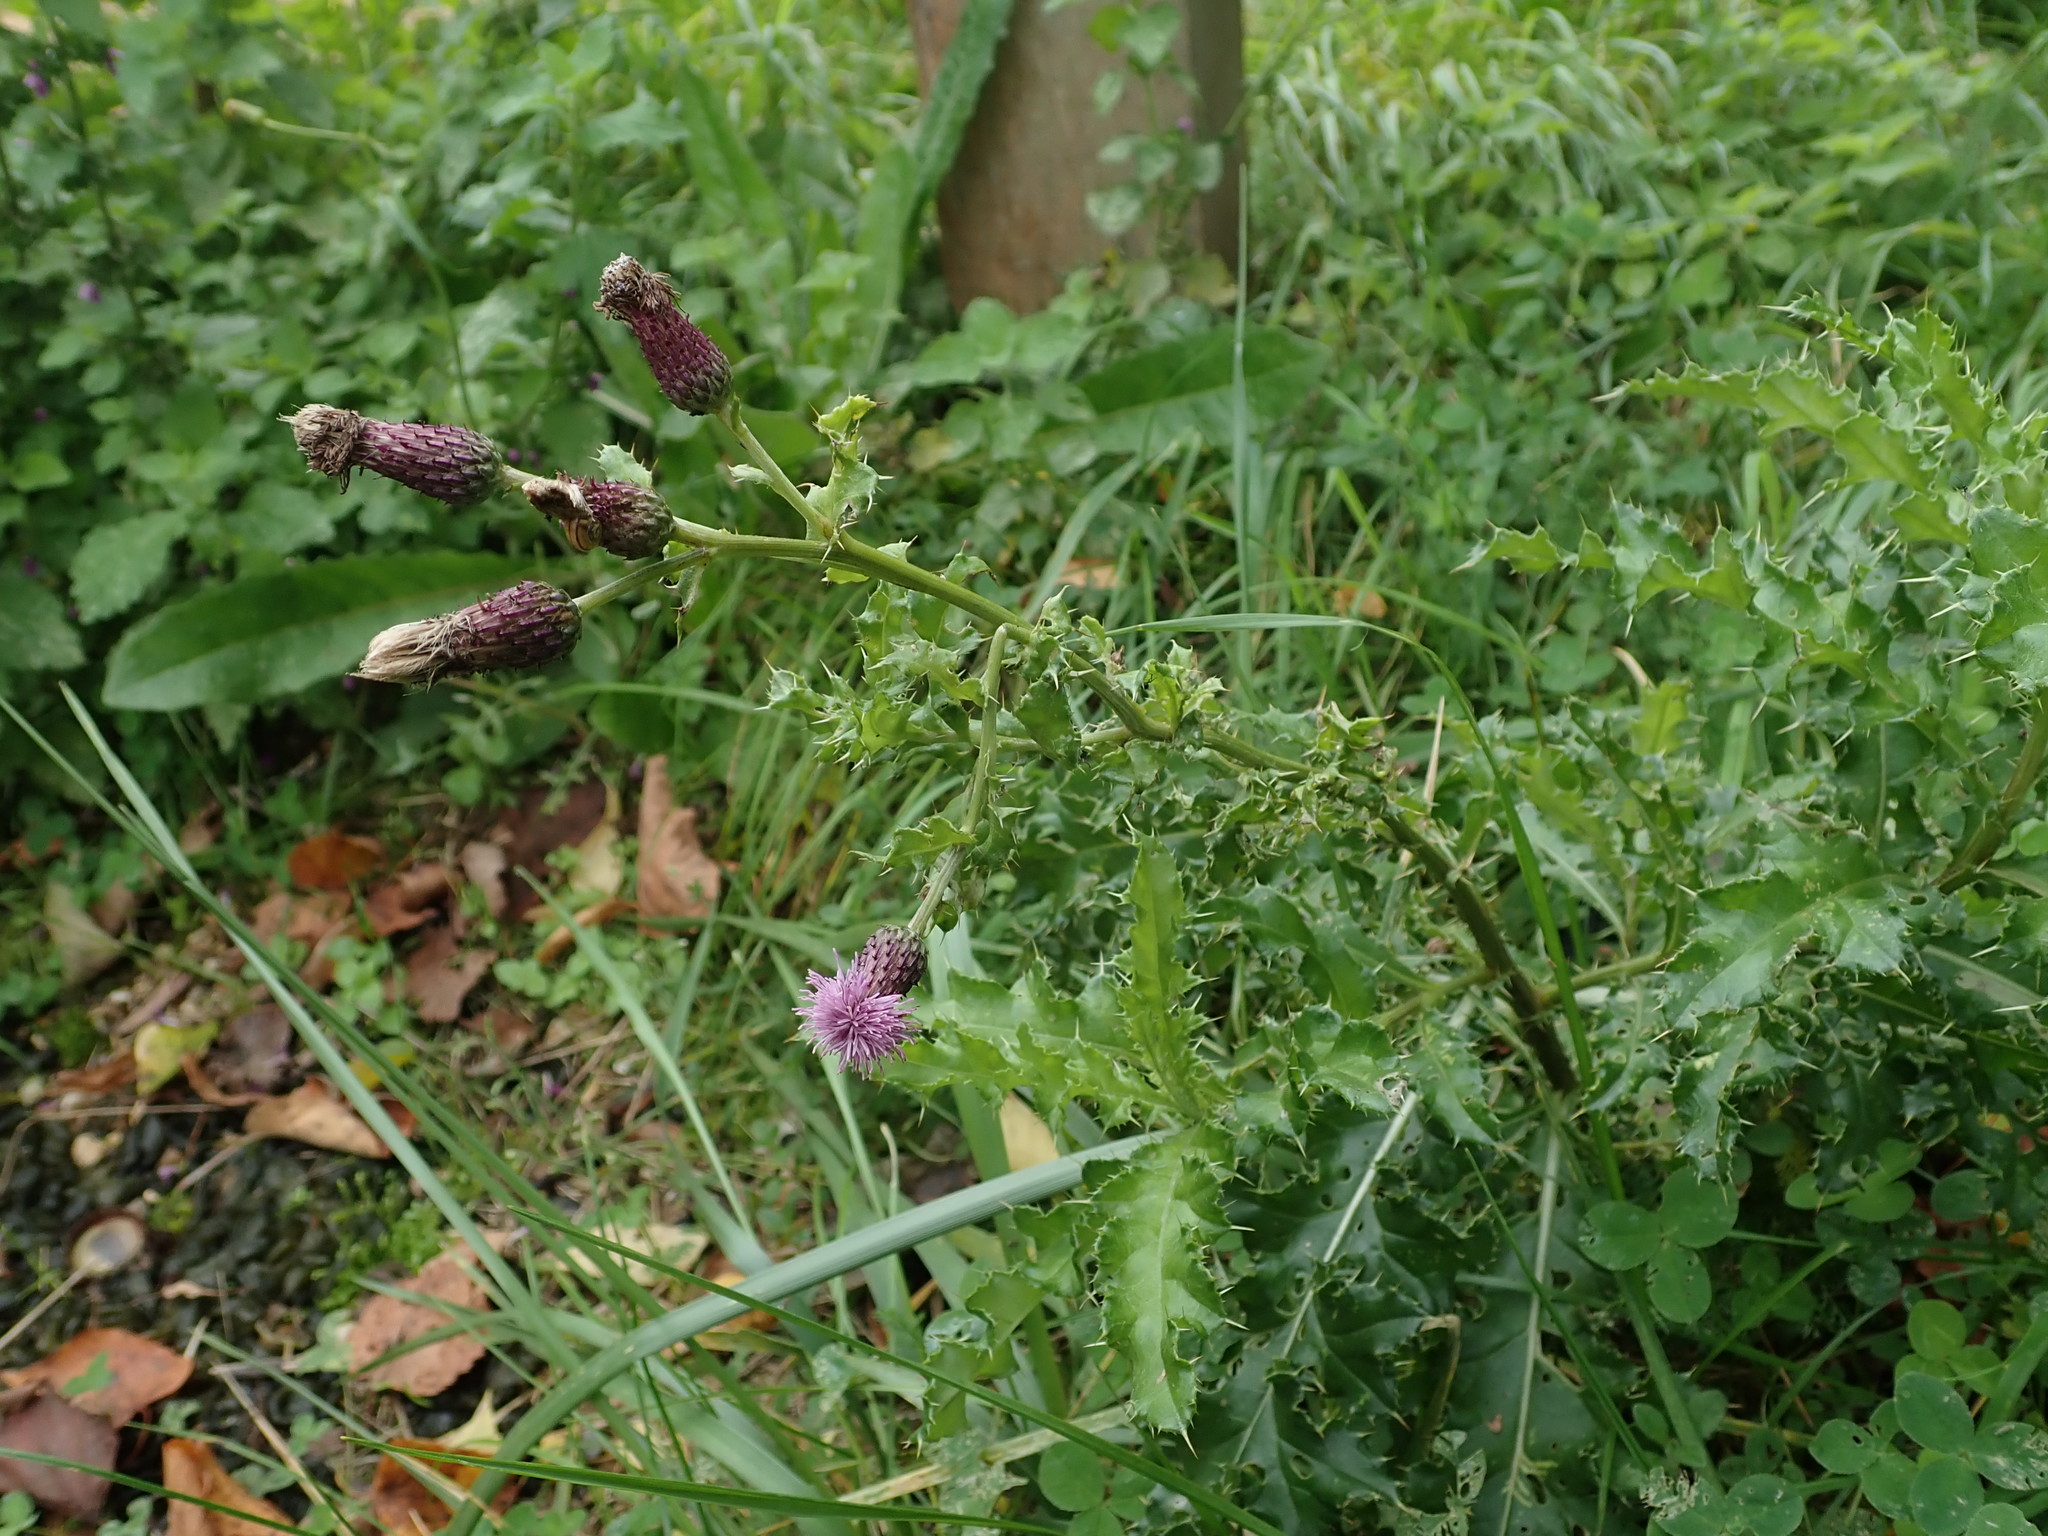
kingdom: Plantae
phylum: Tracheophyta
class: Magnoliopsida
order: Asterales
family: Asteraceae
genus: Cirsium
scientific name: Cirsium arvense
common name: Creeping thistle
